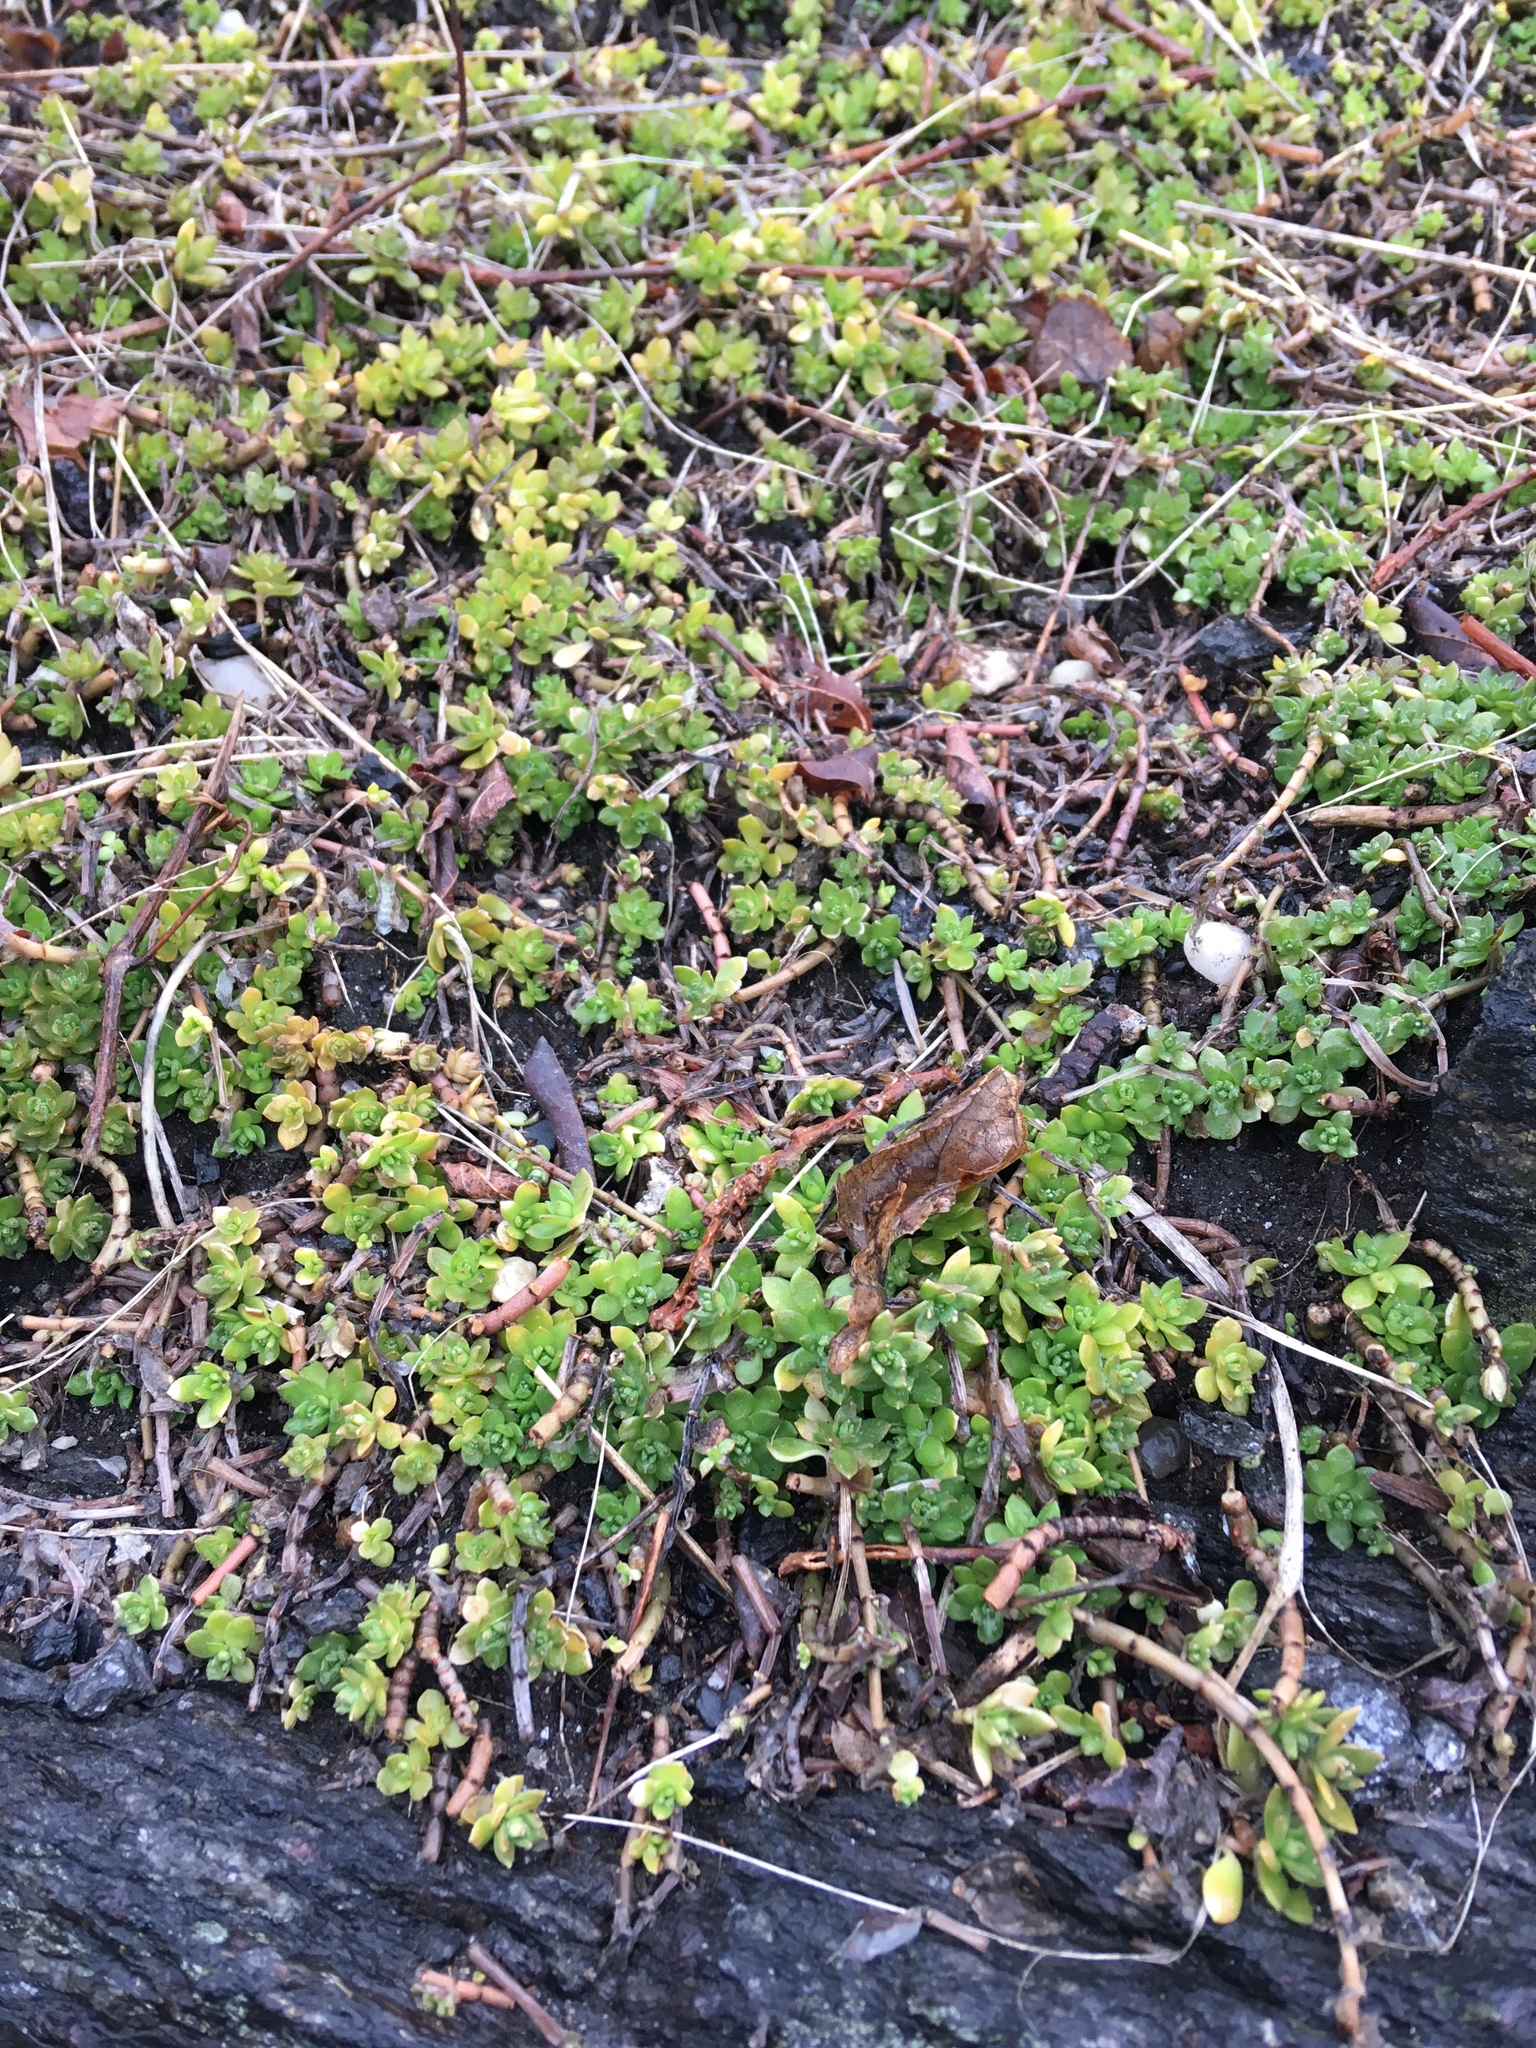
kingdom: Plantae
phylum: Tracheophyta
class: Magnoliopsida
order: Saxifragales
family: Crassulaceae
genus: Sedum
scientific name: Sedum sarmentosum
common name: Stringy stonecrop
